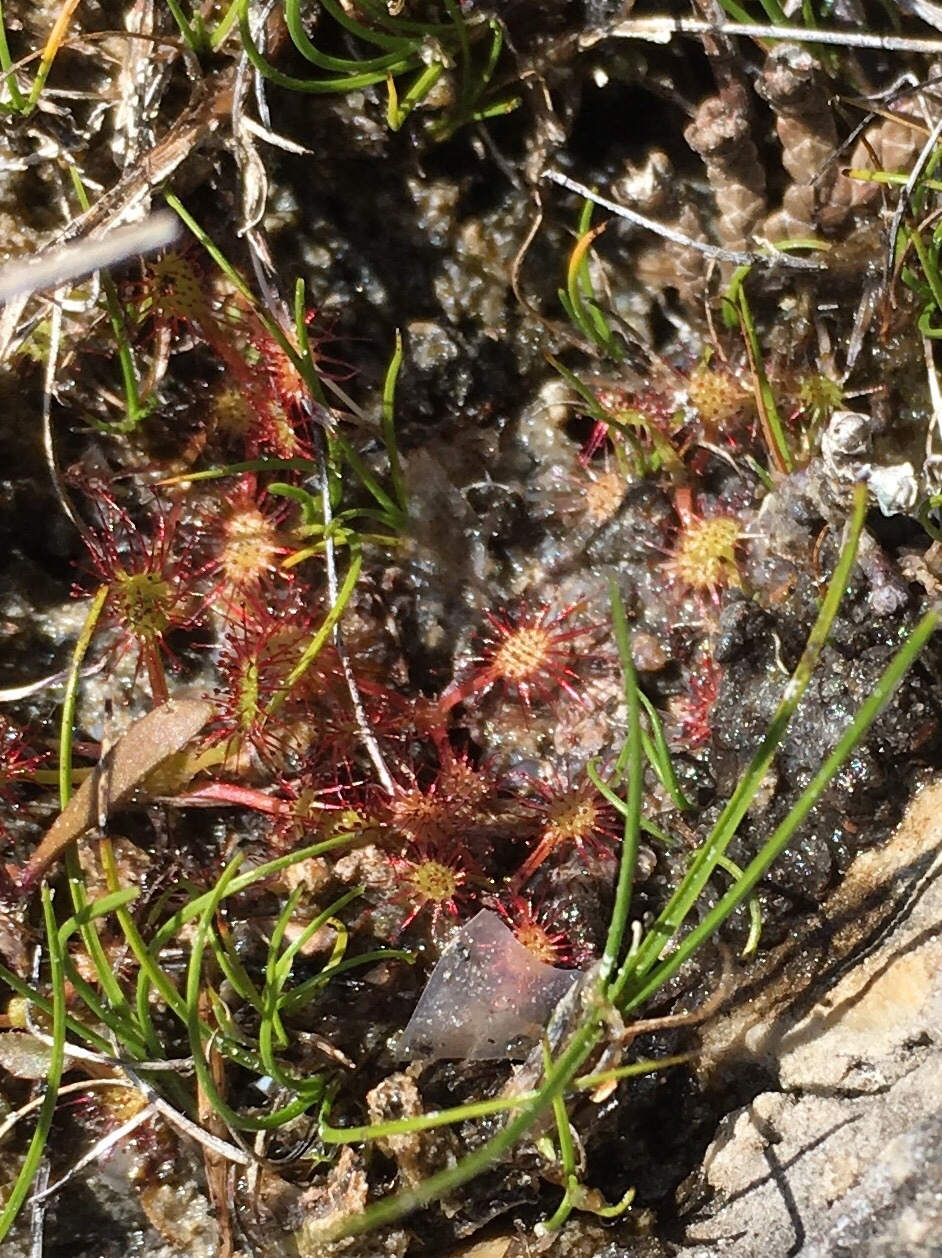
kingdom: Plantae
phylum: Tracheophyta
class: Magnoliopsida
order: Caryophyllales
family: Droseraceae
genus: Drosera
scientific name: Drosera rotundifolia
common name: Round-leaved sundew
